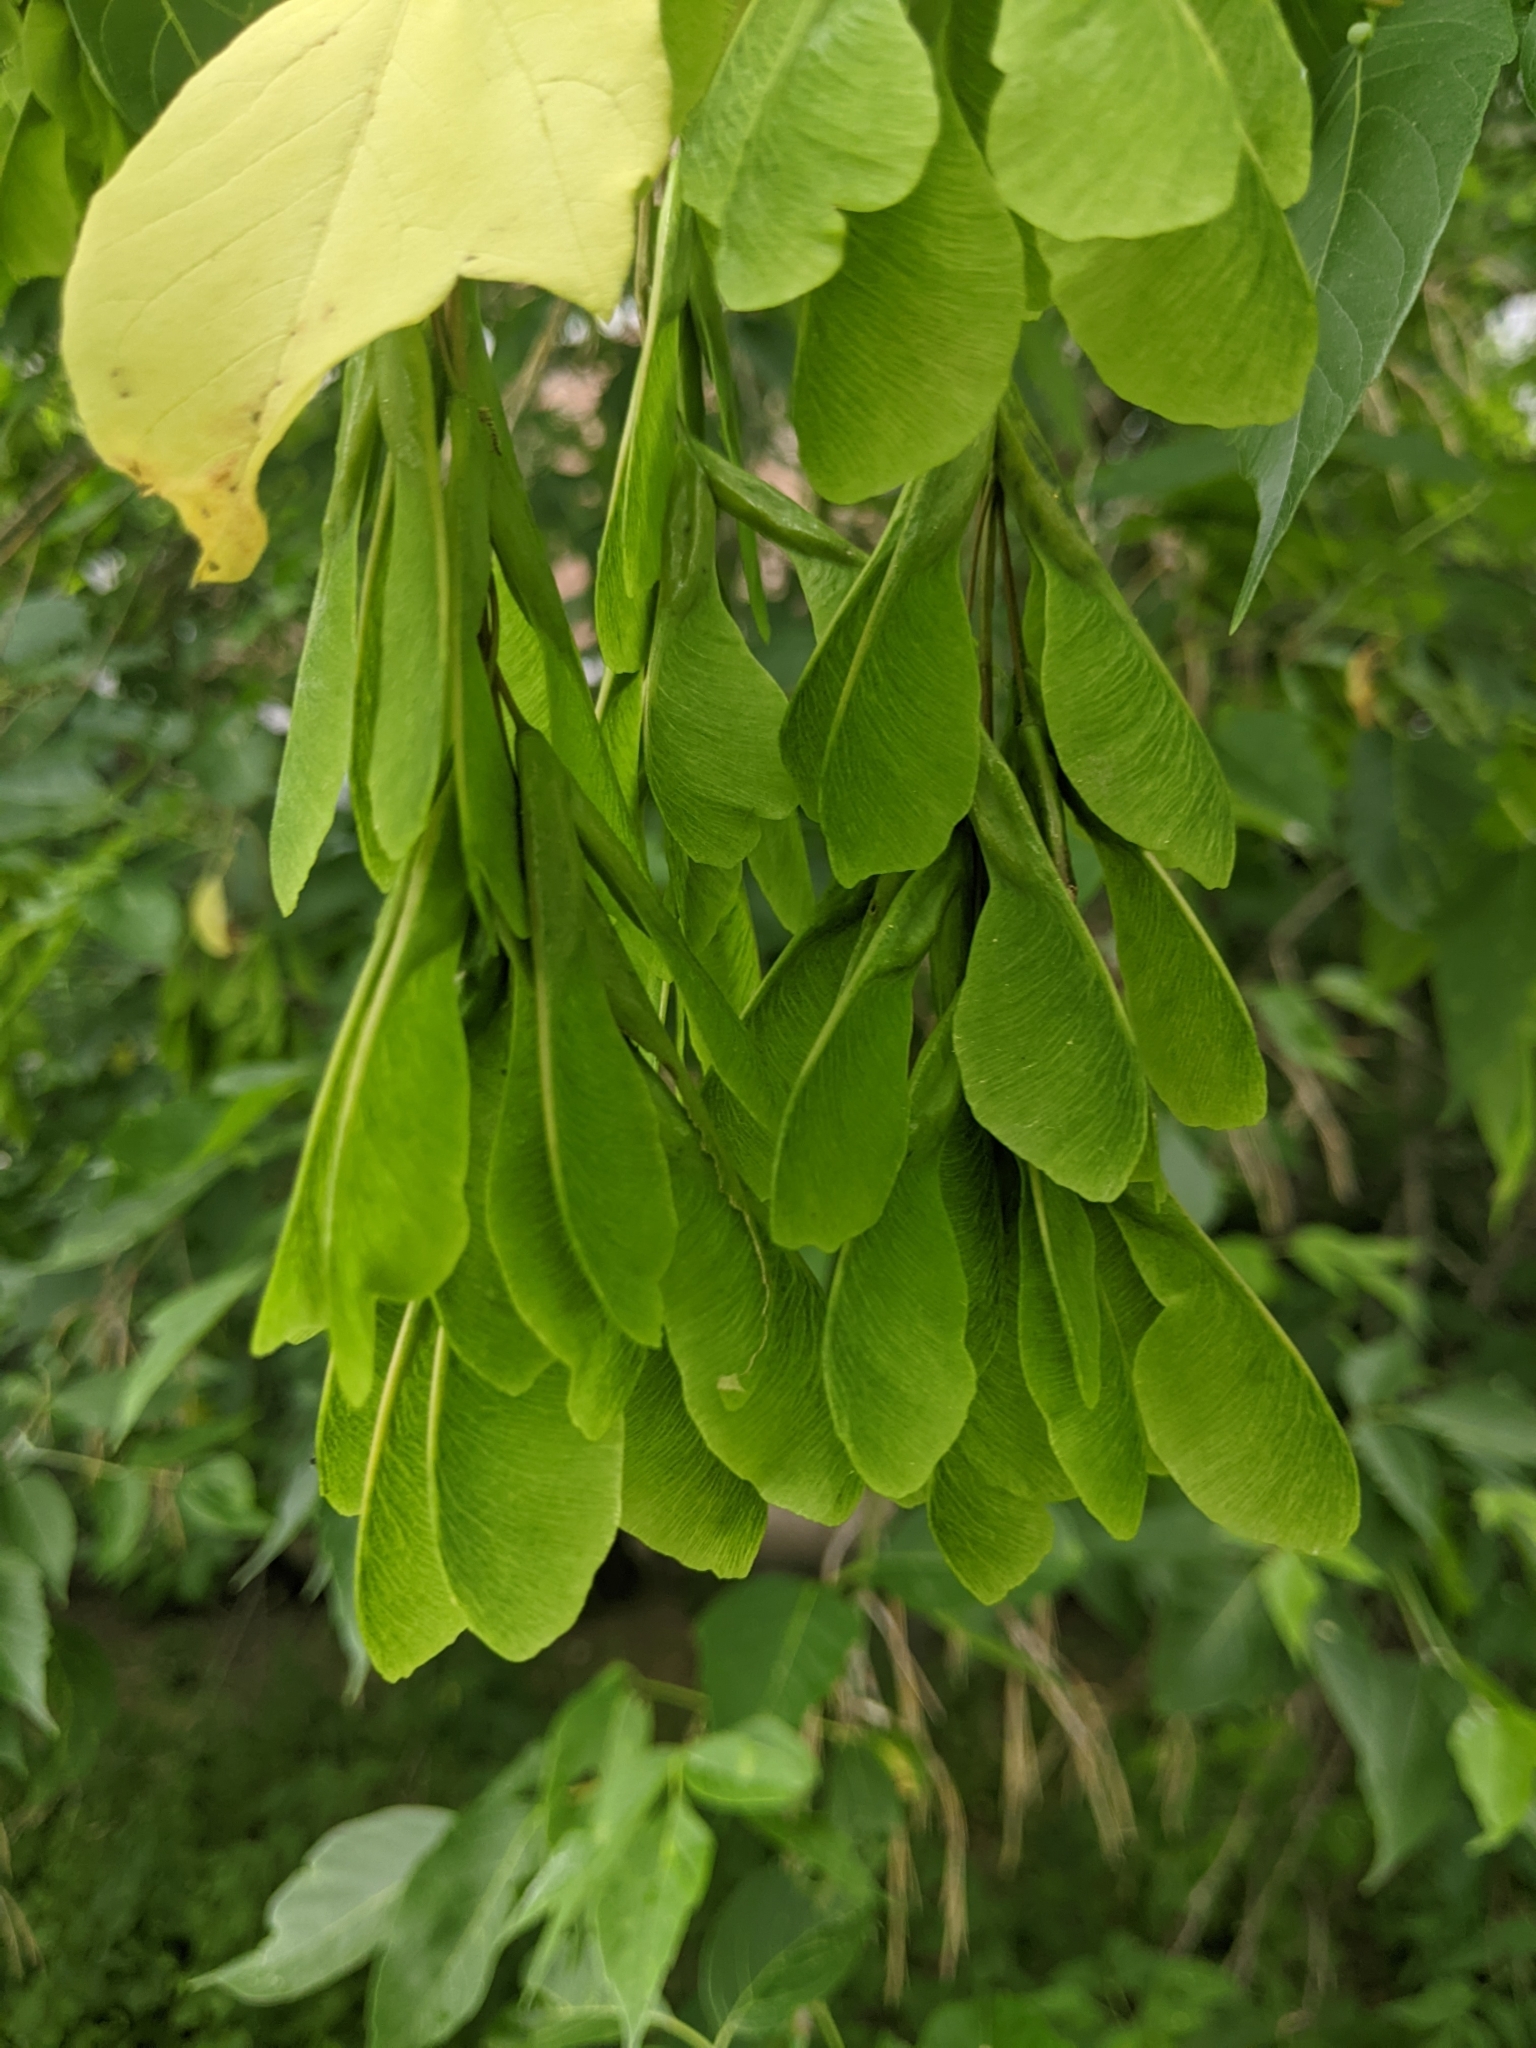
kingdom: Plantae
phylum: Tracheophyta
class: Magnoliopsida
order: Sapindales
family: Sapindaceae
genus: Acer
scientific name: Acer negundo
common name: Ashleaf maple
